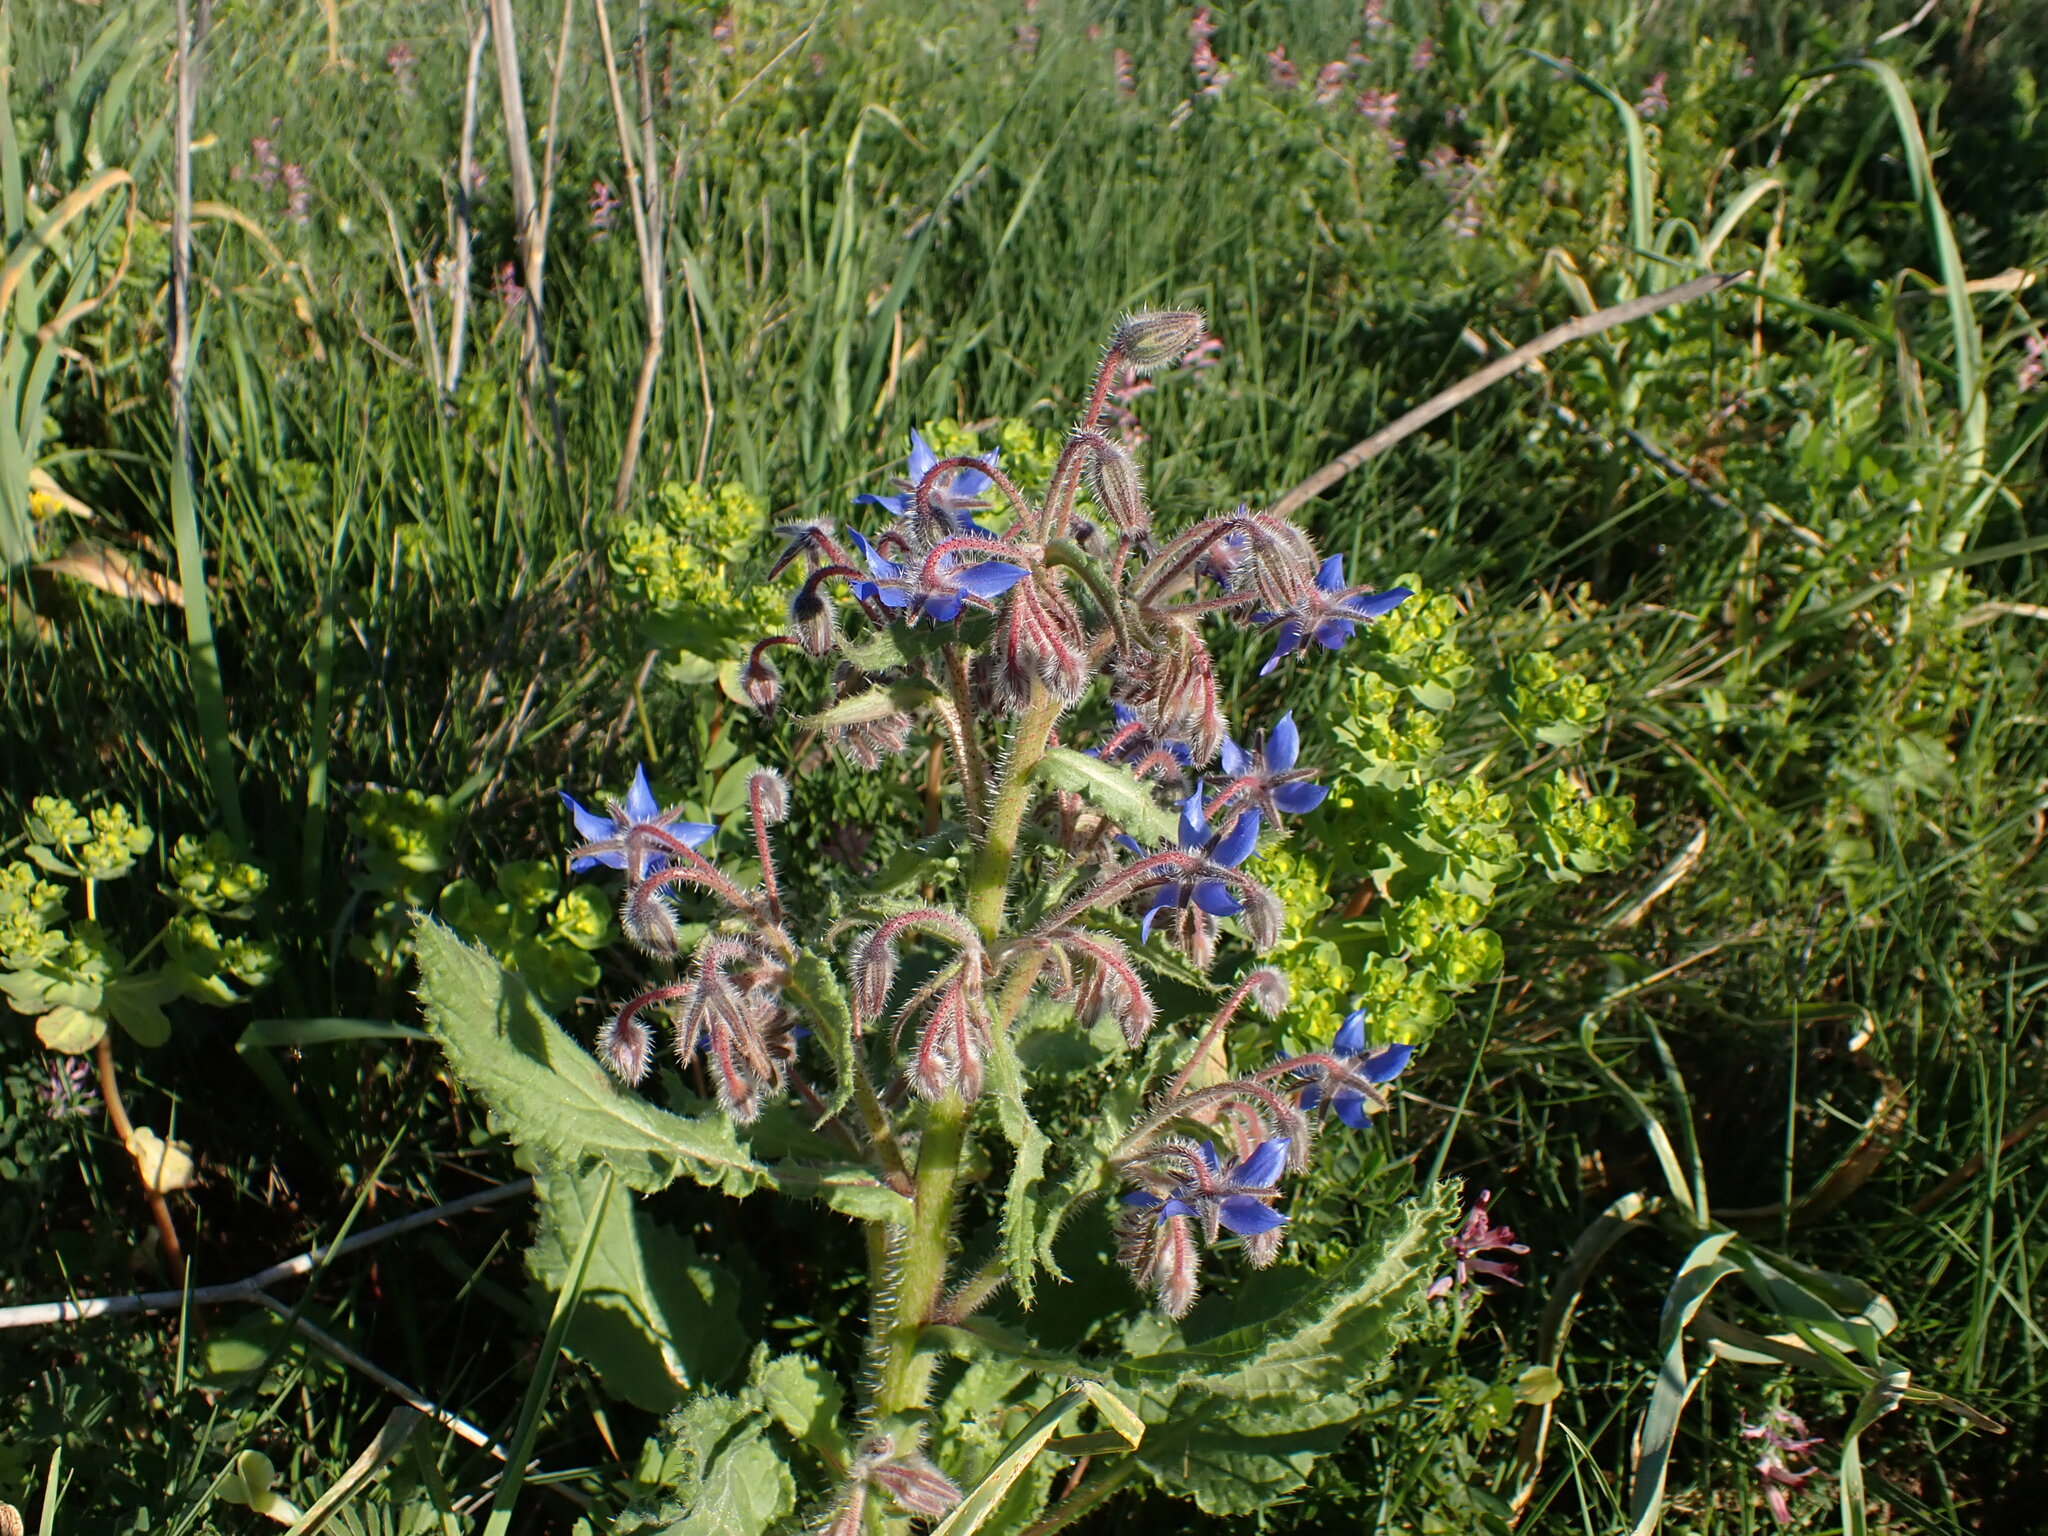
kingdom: Plantae
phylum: Tracheophyta
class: Magnoliopsida
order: Boraginales
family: Boraginaceae
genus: Borago
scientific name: Borago officinalis
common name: Borage
